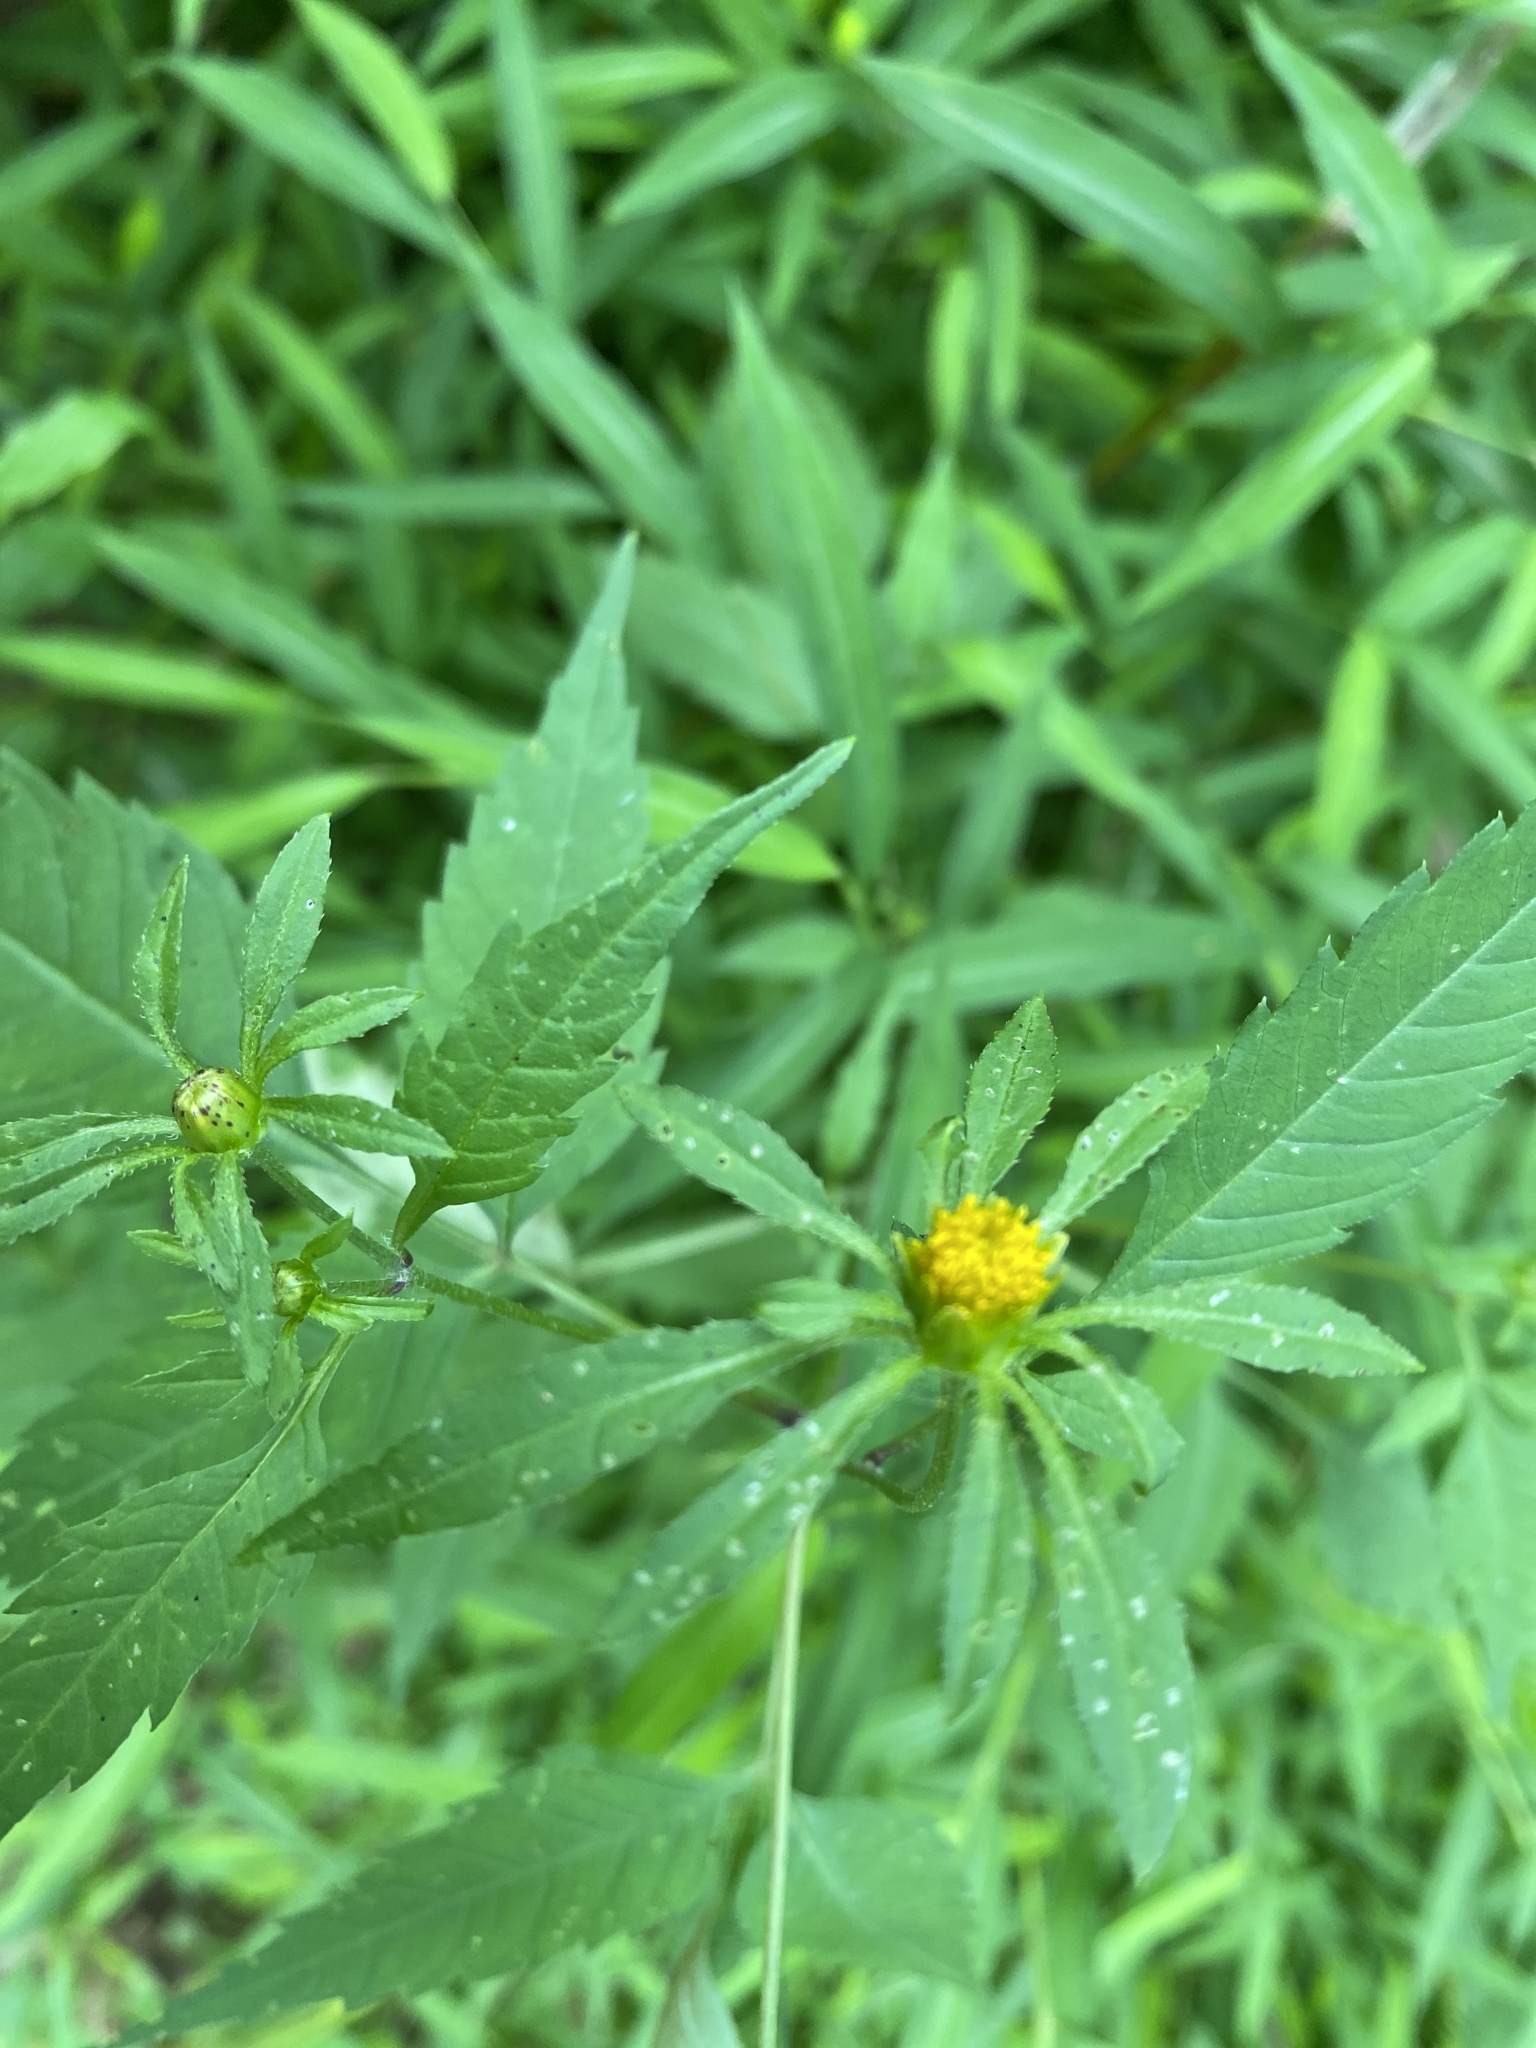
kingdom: Plantae
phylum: Tracheophyta
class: Magnoliopsida
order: Asterales
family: Asteraceae
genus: Bidens
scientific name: Bidens frondosa
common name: Beggarticks
